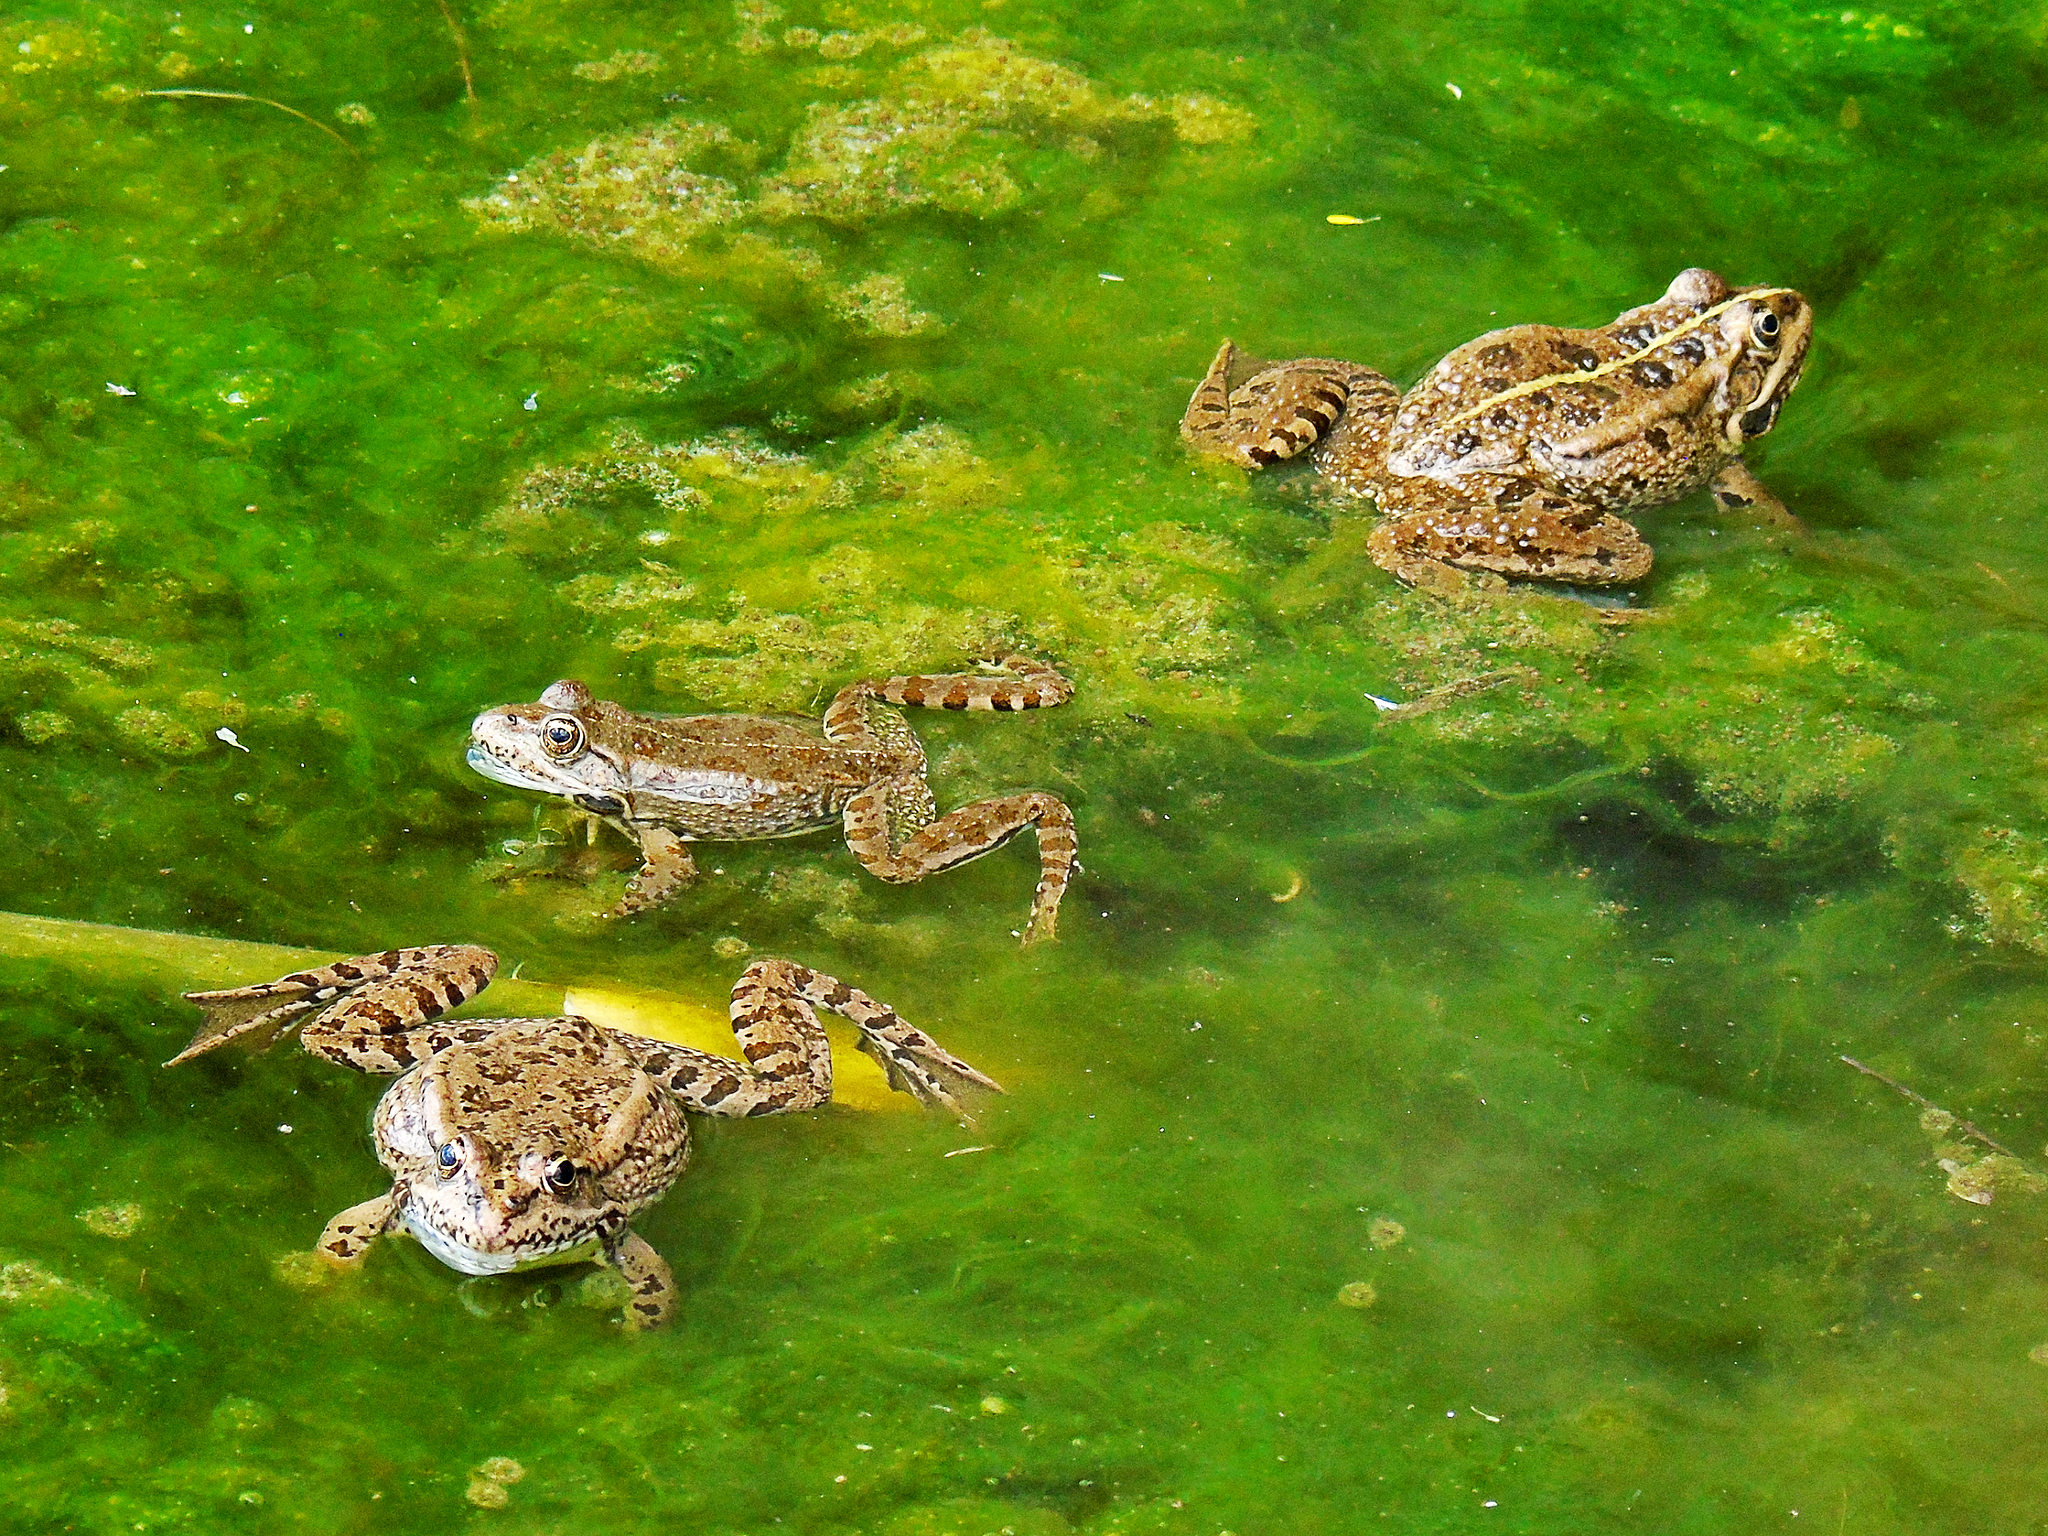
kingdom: Animalia
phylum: Chordata
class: Amphibia
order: Anura
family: Ranidae
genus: Pelophylax
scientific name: Pelophylax ridibundus
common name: Marsh frog
